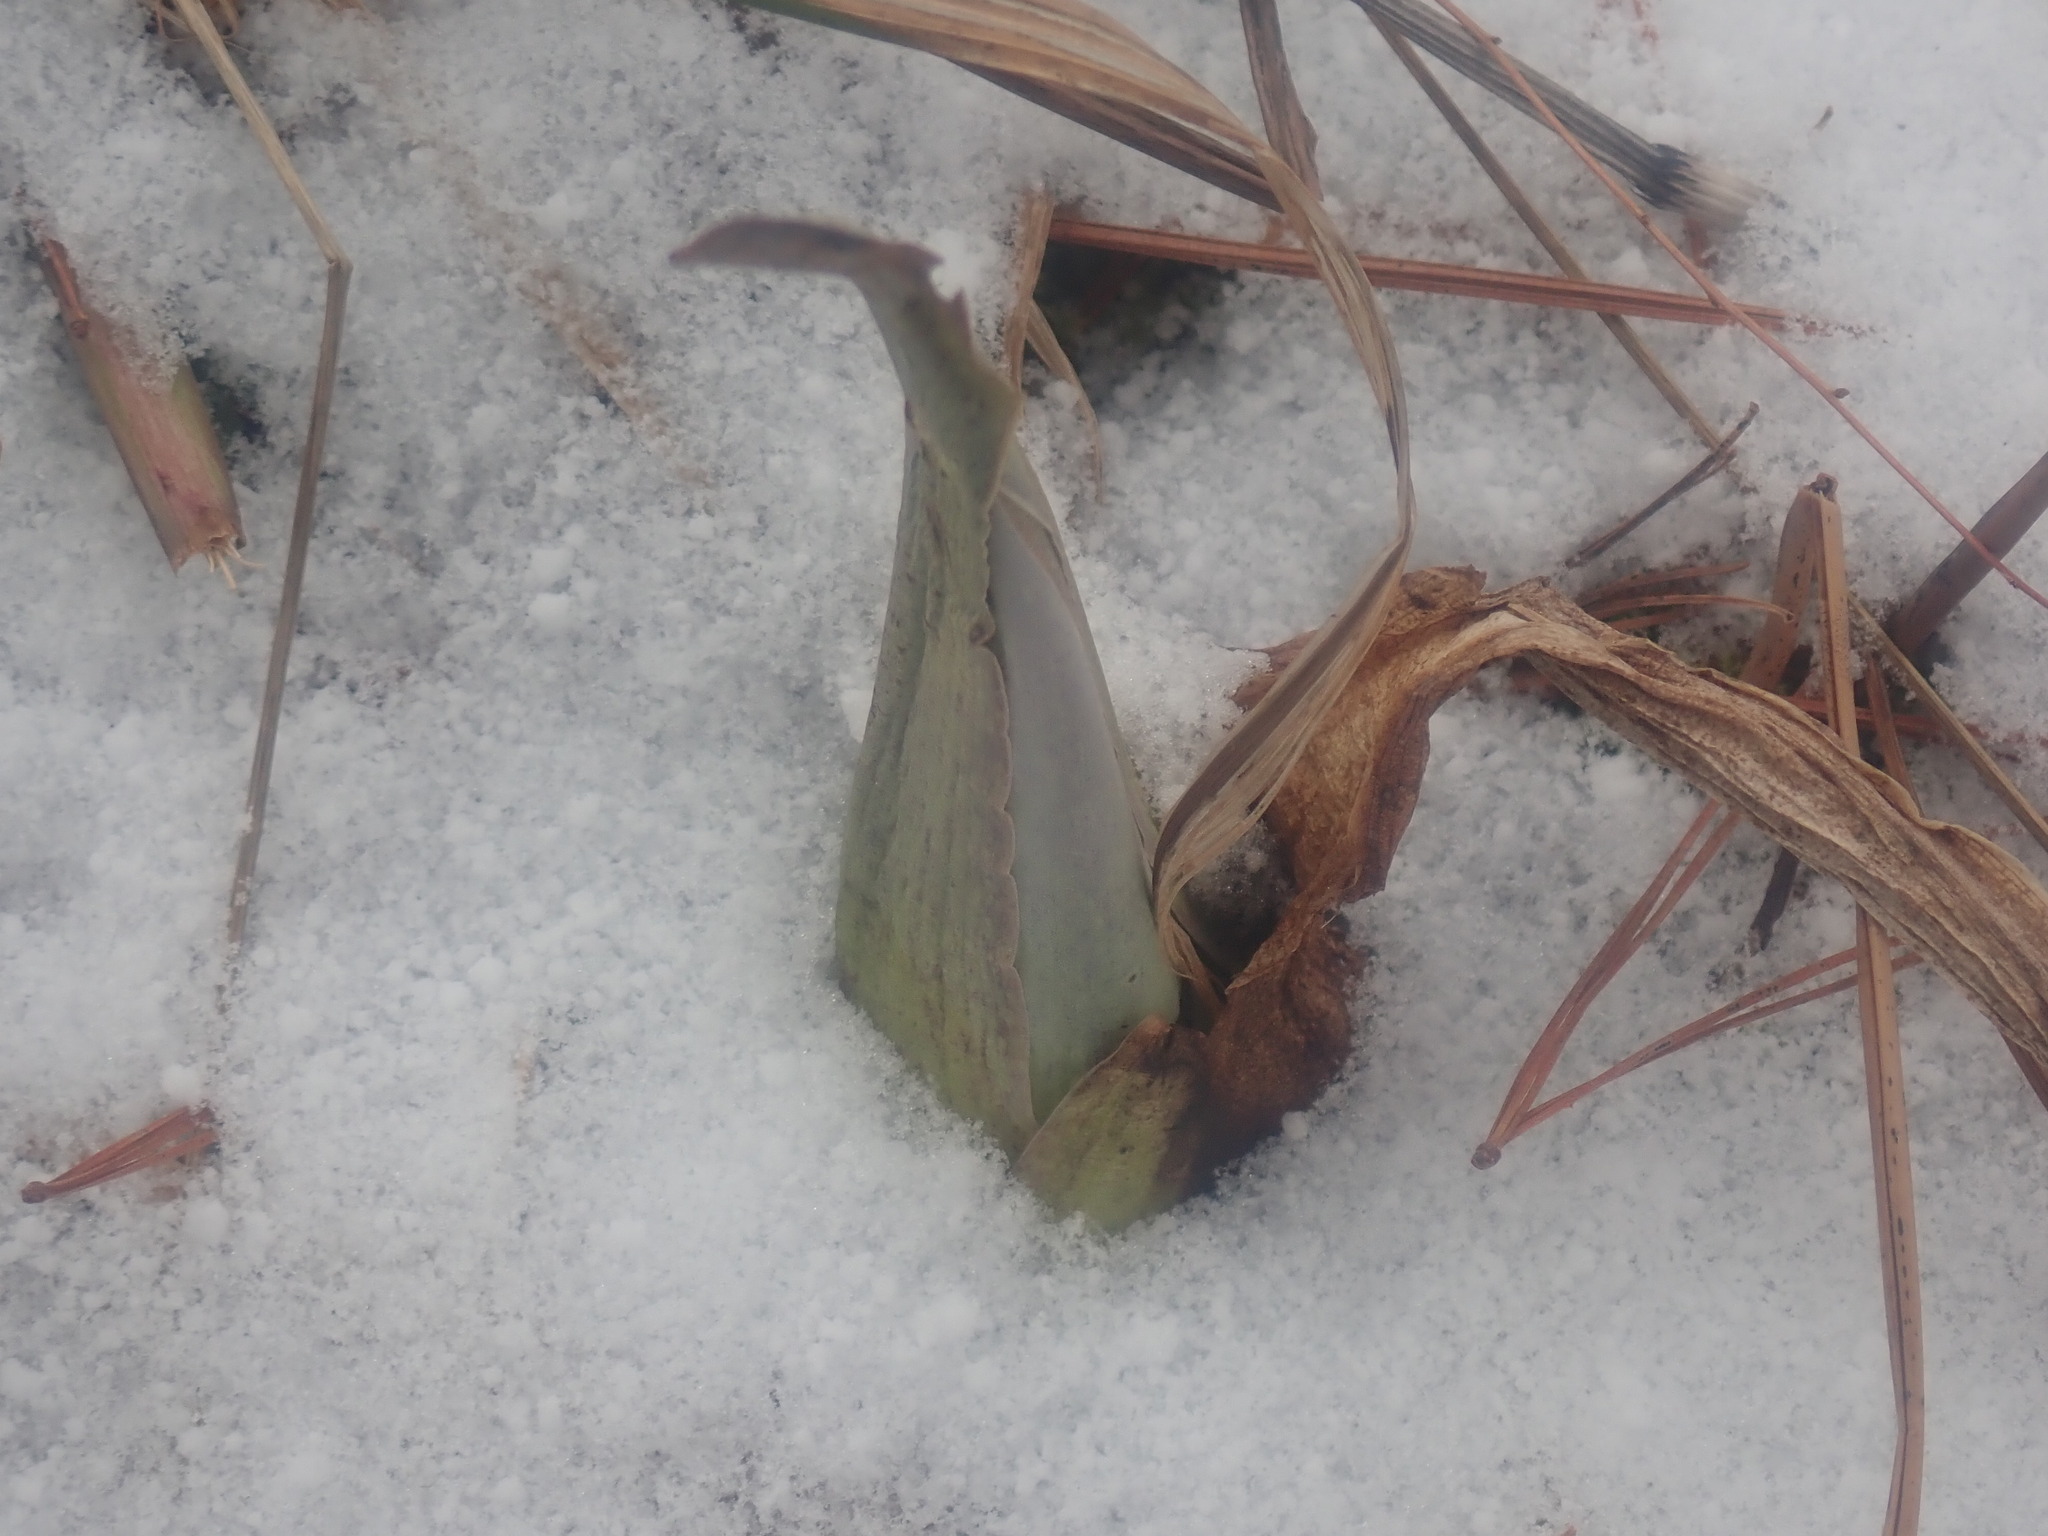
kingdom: Plantae
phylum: Tracheophyta
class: Liliopsida
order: Alismatales
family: Araceae
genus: Symplocarpus
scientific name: Symplocarpus foetidus
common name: Eastern skunk cabbage
